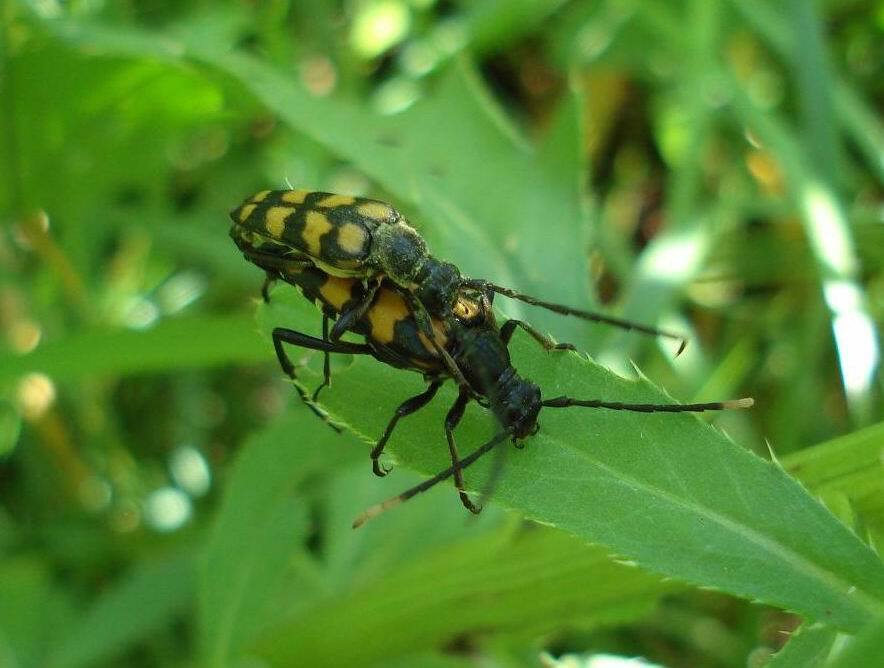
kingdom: Animalia
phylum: Arthropoda
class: Insecta
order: Coleoptera
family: Cerambycidae
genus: Leptura
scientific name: Leptura quadrifasciata
